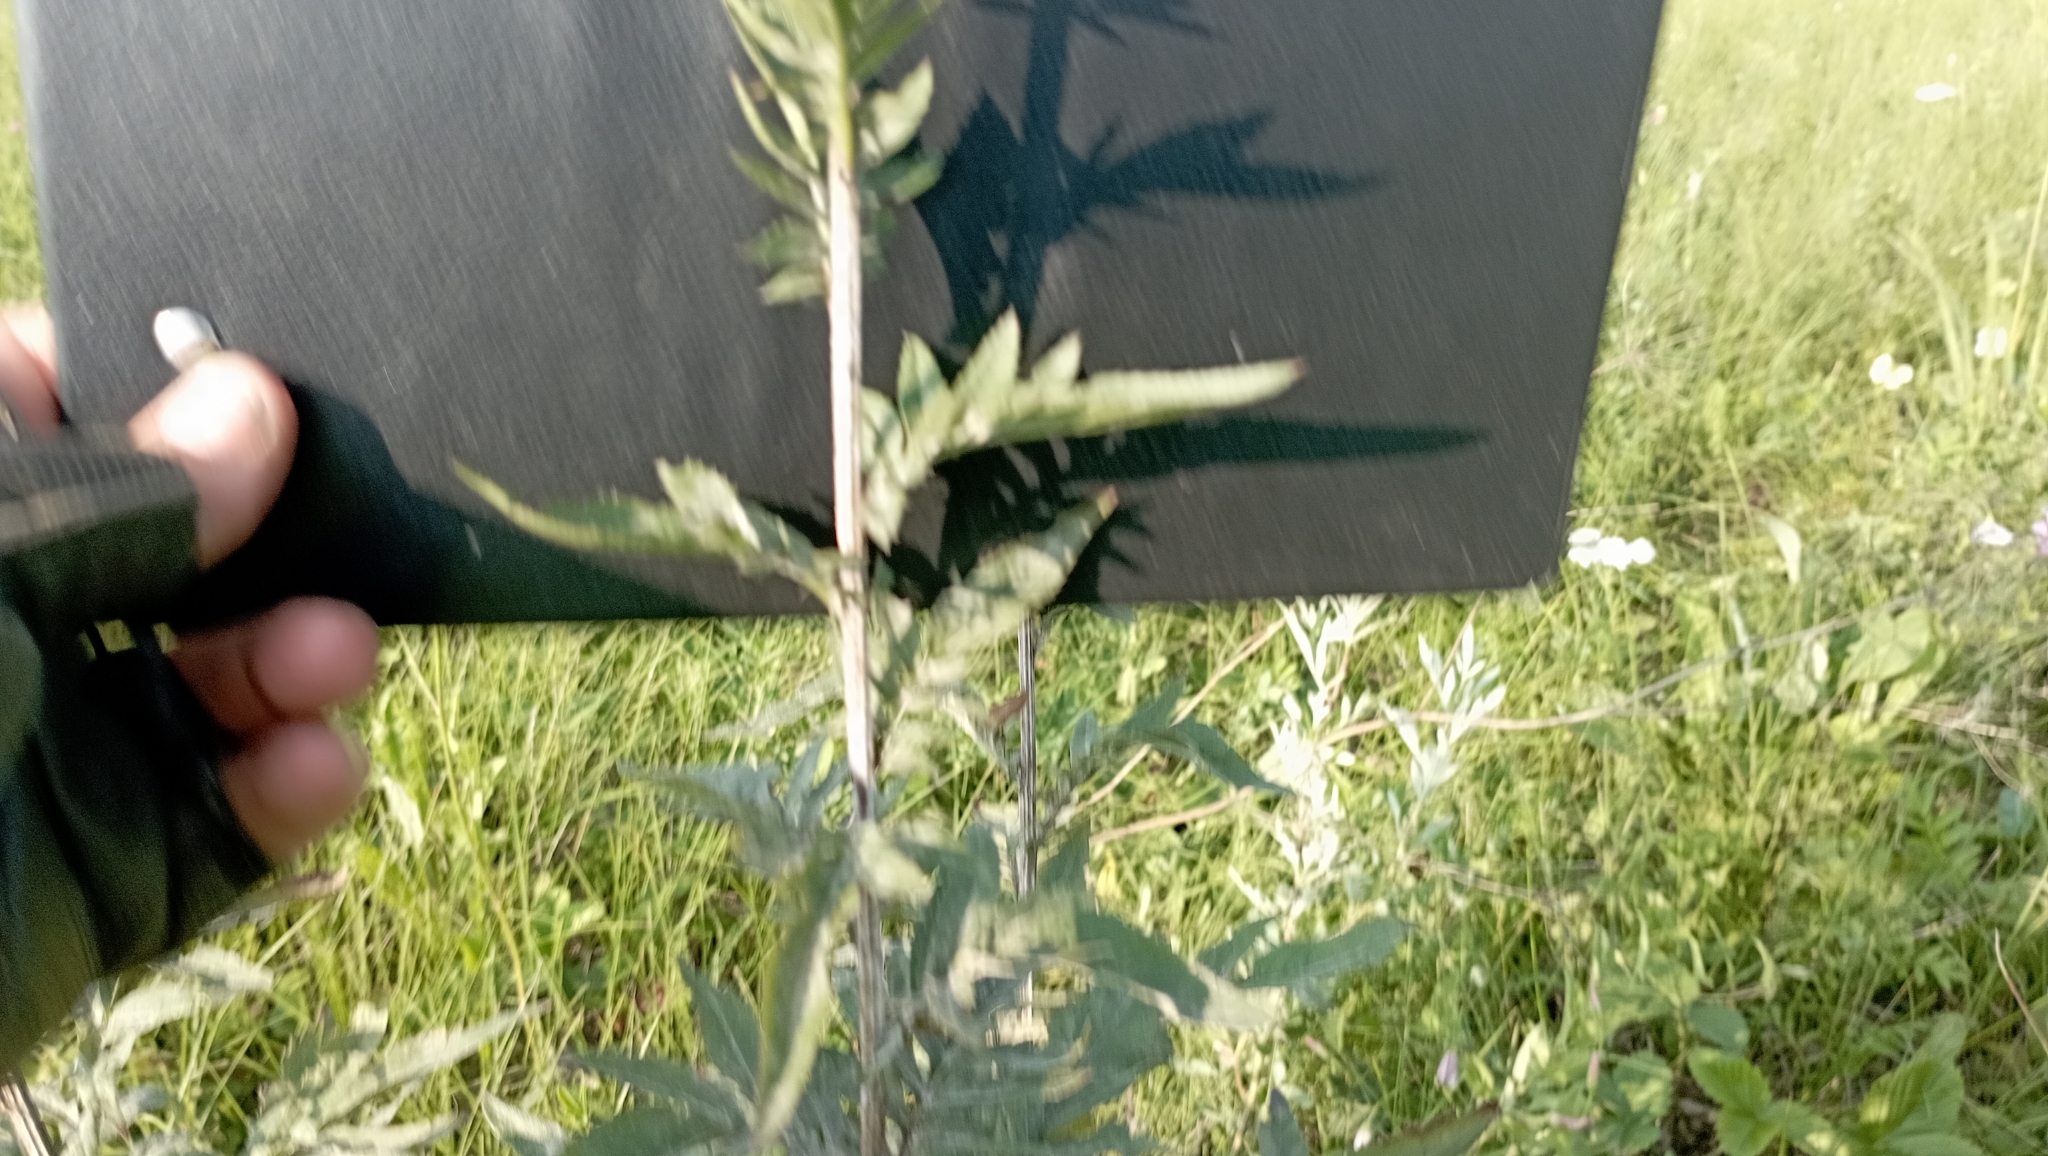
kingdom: Plantae
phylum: Tracheophyta
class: Magnoliopsida
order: Asterales
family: Asteraceae
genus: Serratula
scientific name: Serratula coronata
